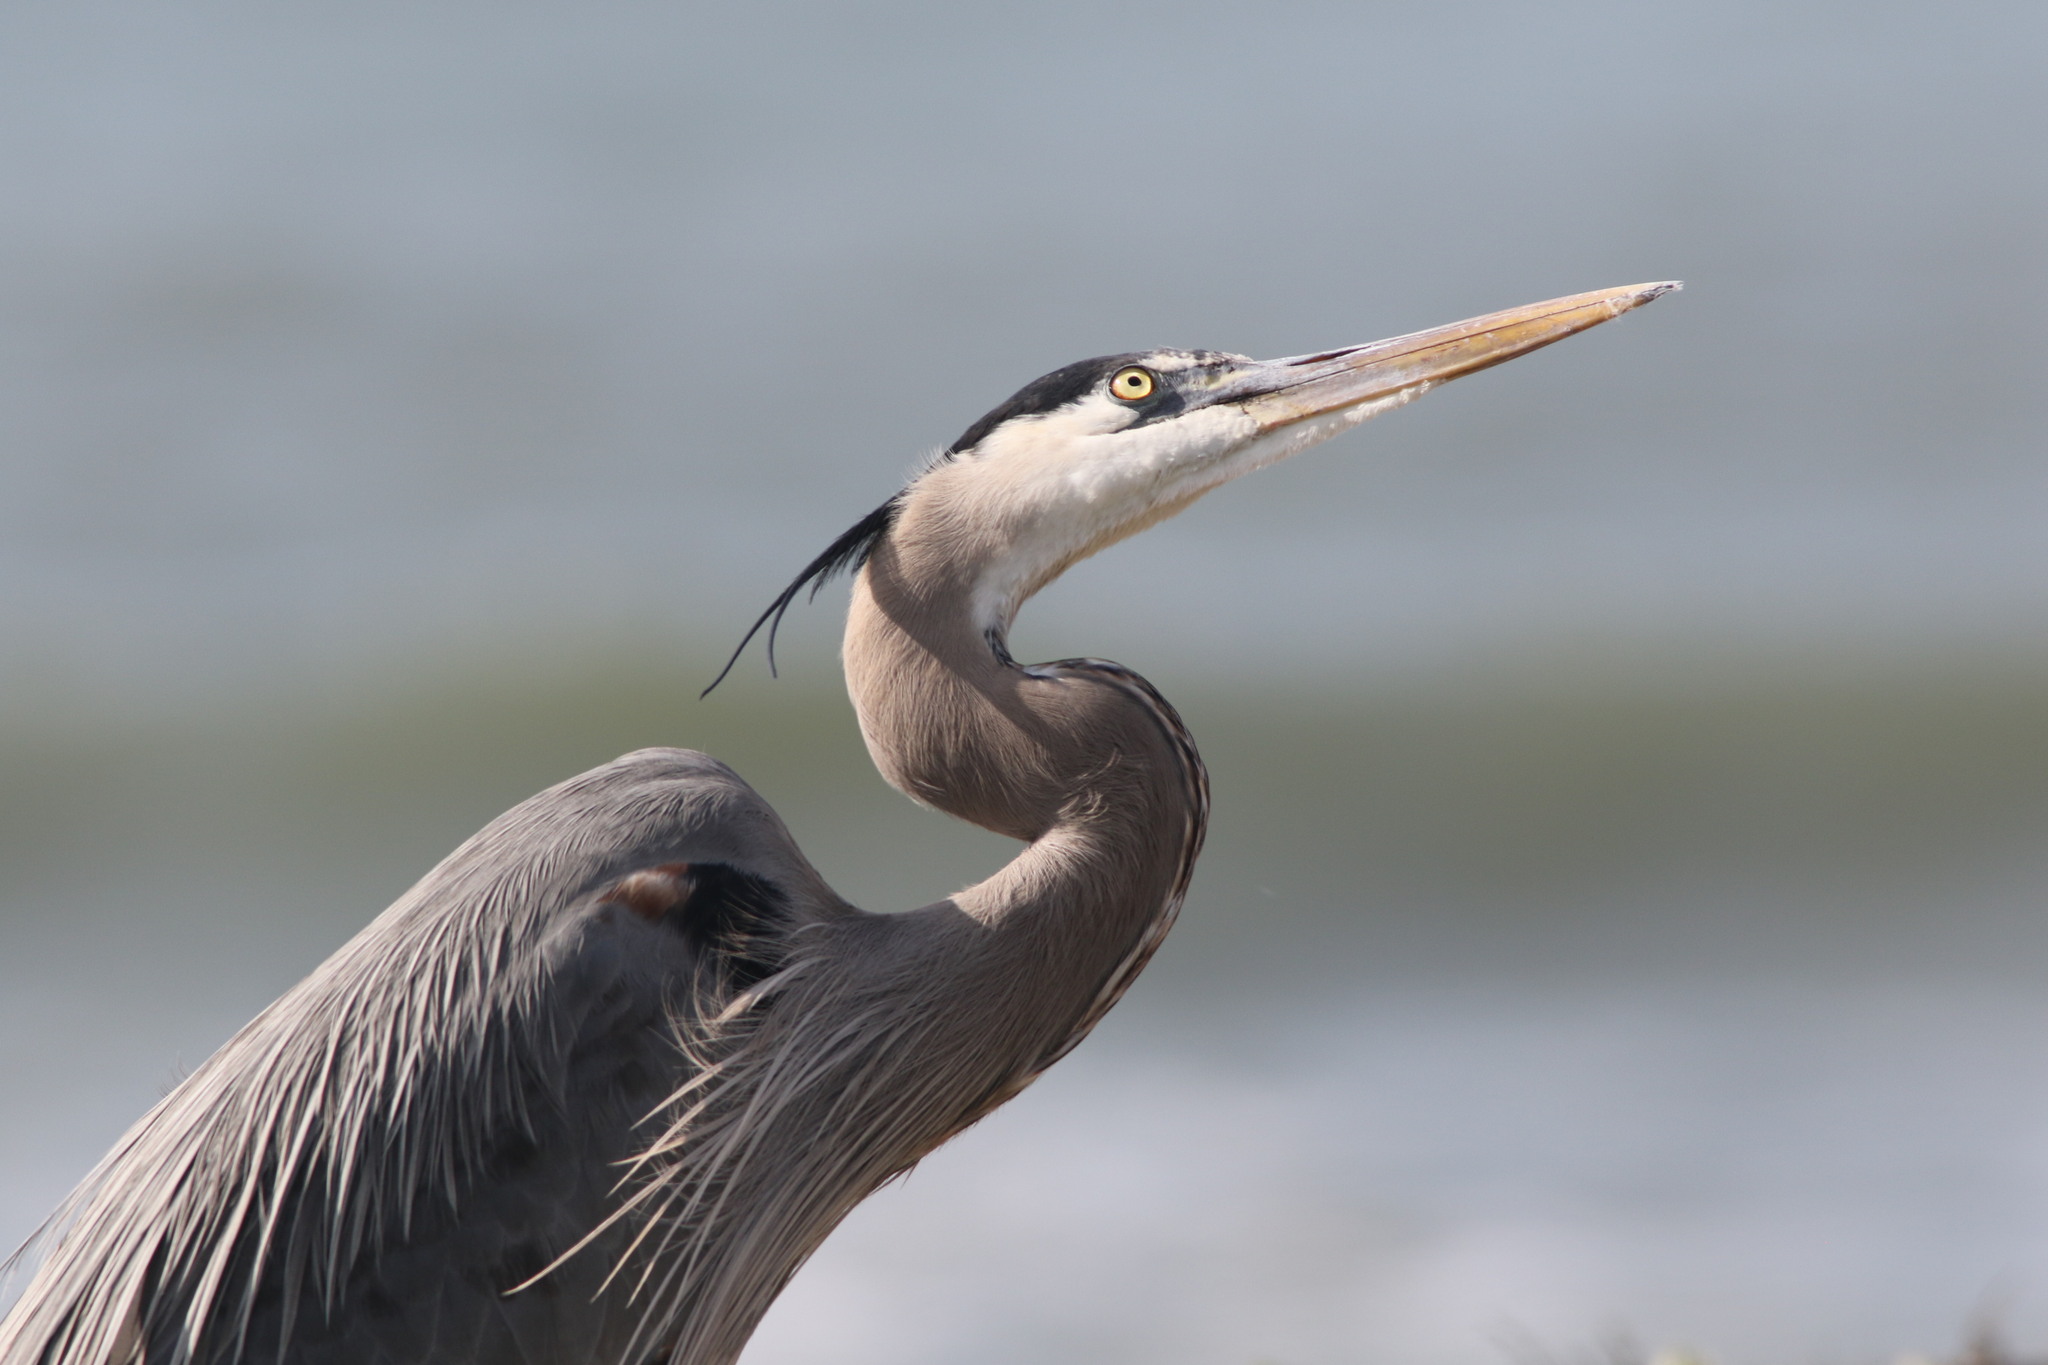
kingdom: Animalia
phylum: Chordata
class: Aves
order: Pelecaniformes
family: Ardeidae
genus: Ardea
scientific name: Ardea herodias
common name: Great blue heron
